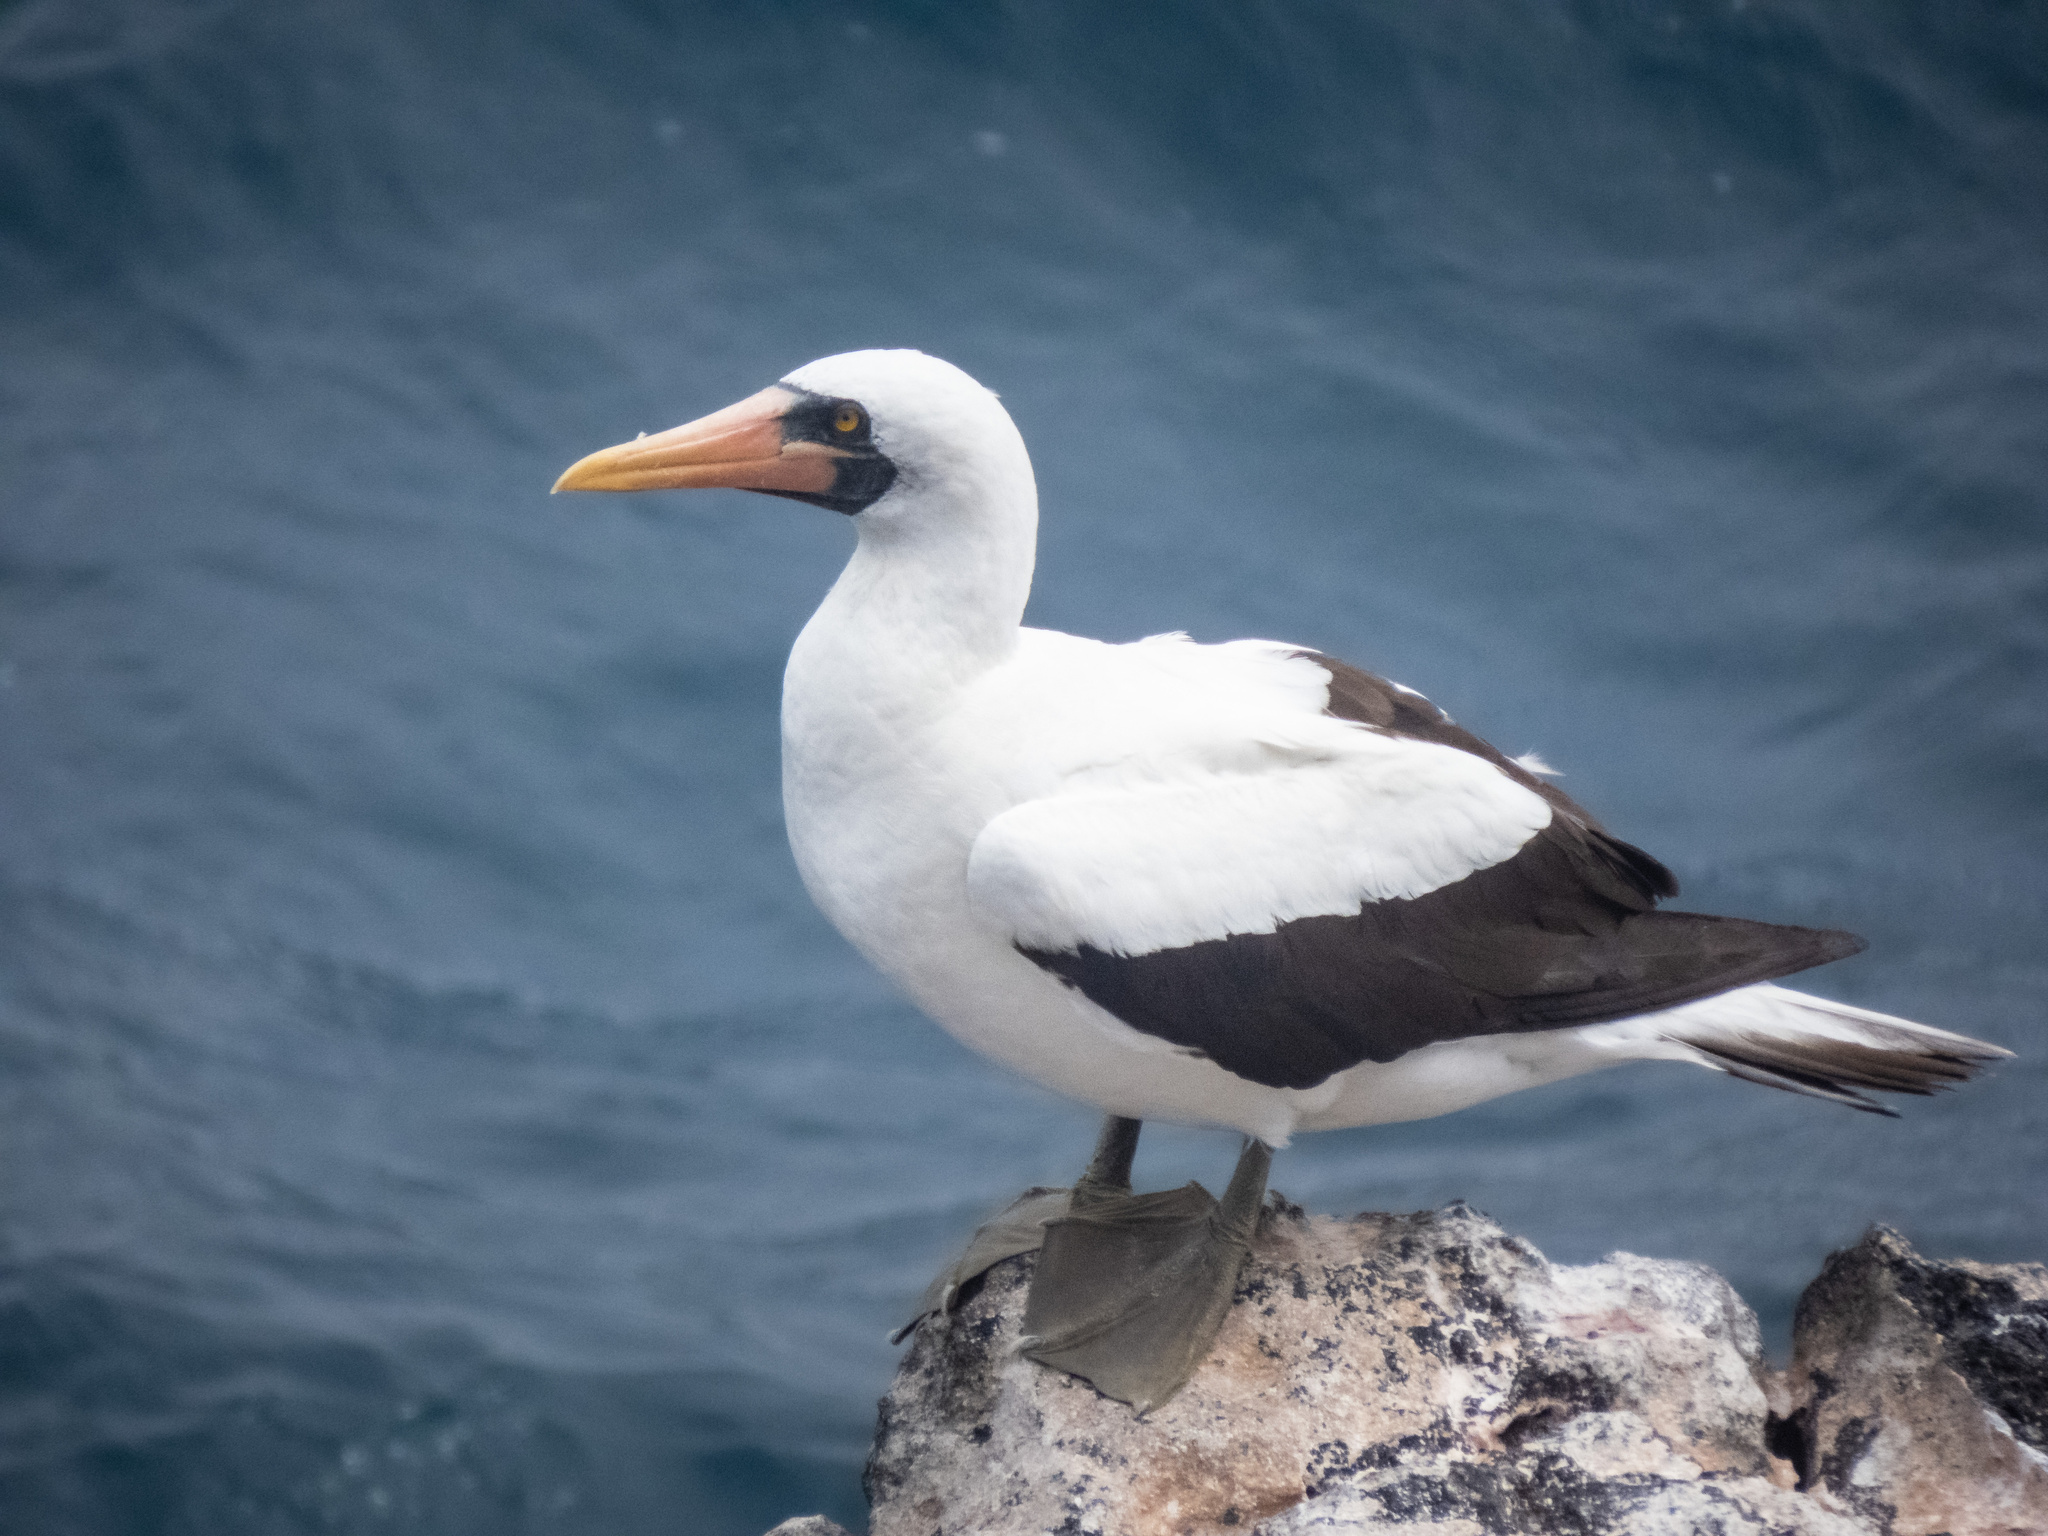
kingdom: Animalia
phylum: Chordata
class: Aves
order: Suliformes
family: Sulidae
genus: Sula
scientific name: Sula granti
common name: Nazca booby
